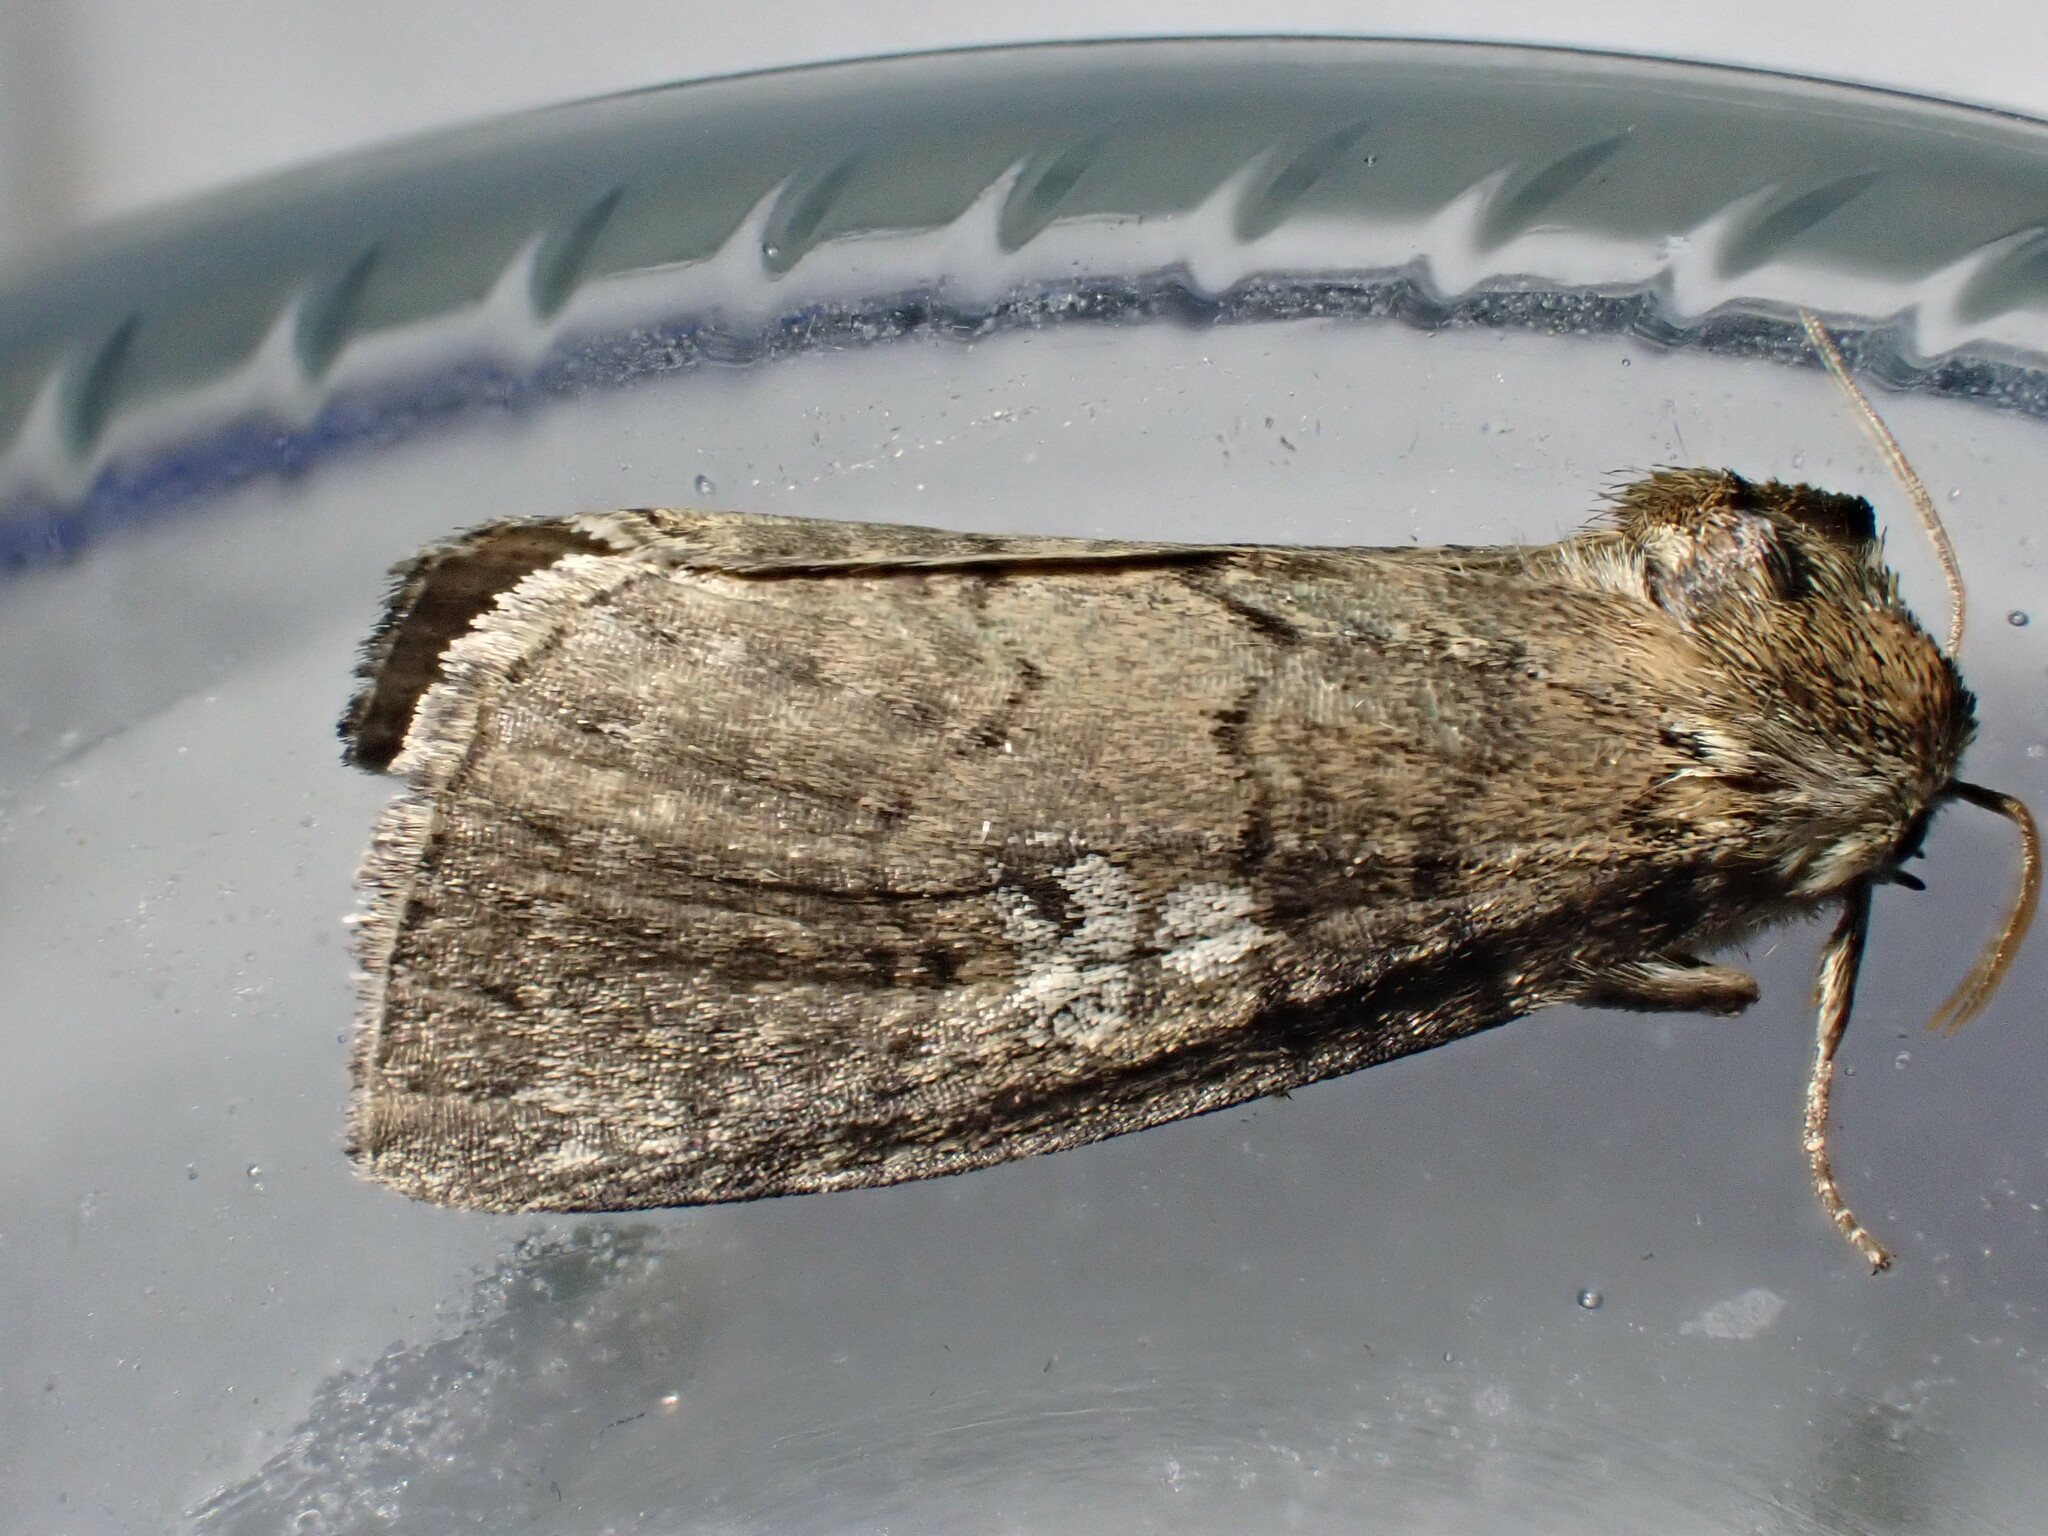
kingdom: Animalia
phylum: Arthropoda
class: Insecta
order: Lepidoptera
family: Drepanidae
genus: Tethea
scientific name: Tethea or
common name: Poplar lutestring
